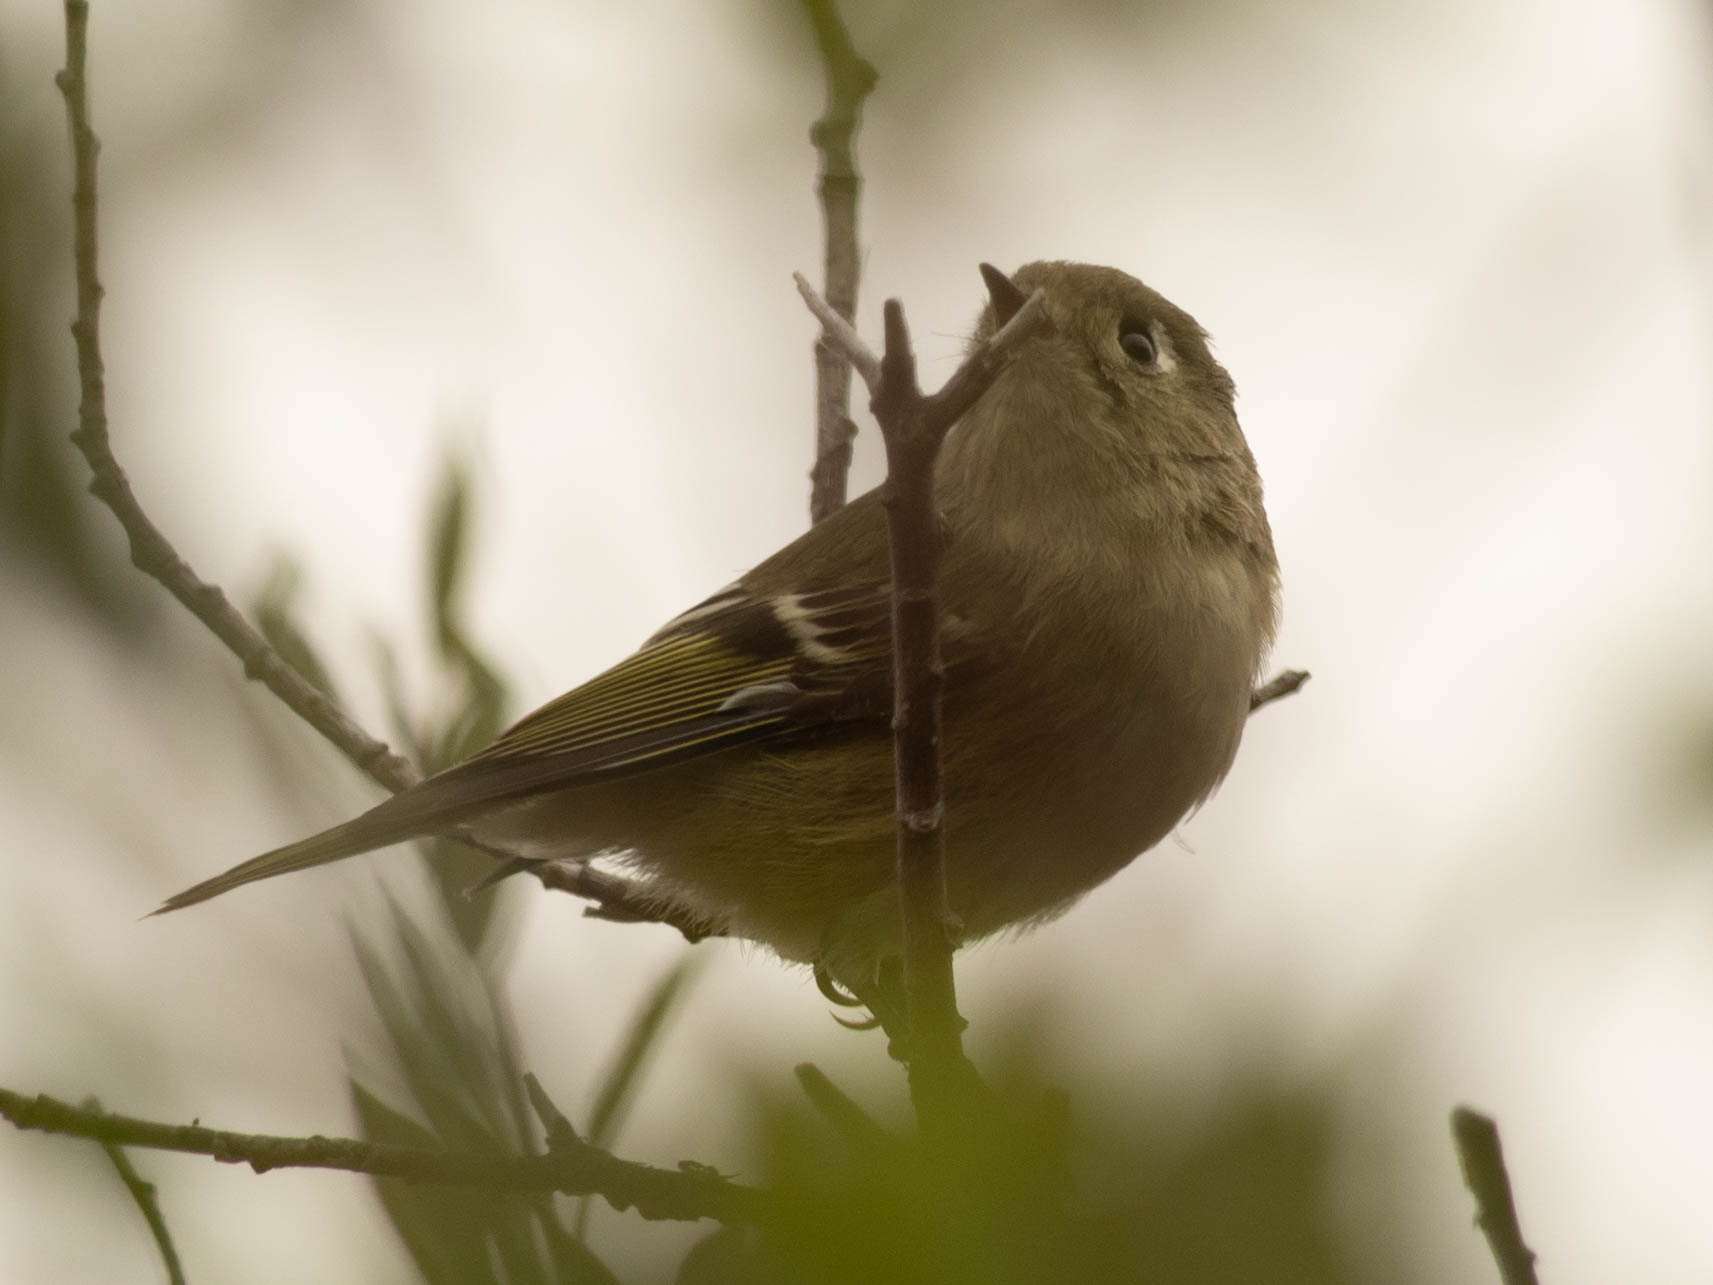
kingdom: Animalia
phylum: Chordata
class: Aves
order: Passeriformes
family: Regulidae
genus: Regulus
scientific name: Regulus calendula
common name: Ruby-crowned kinglet
